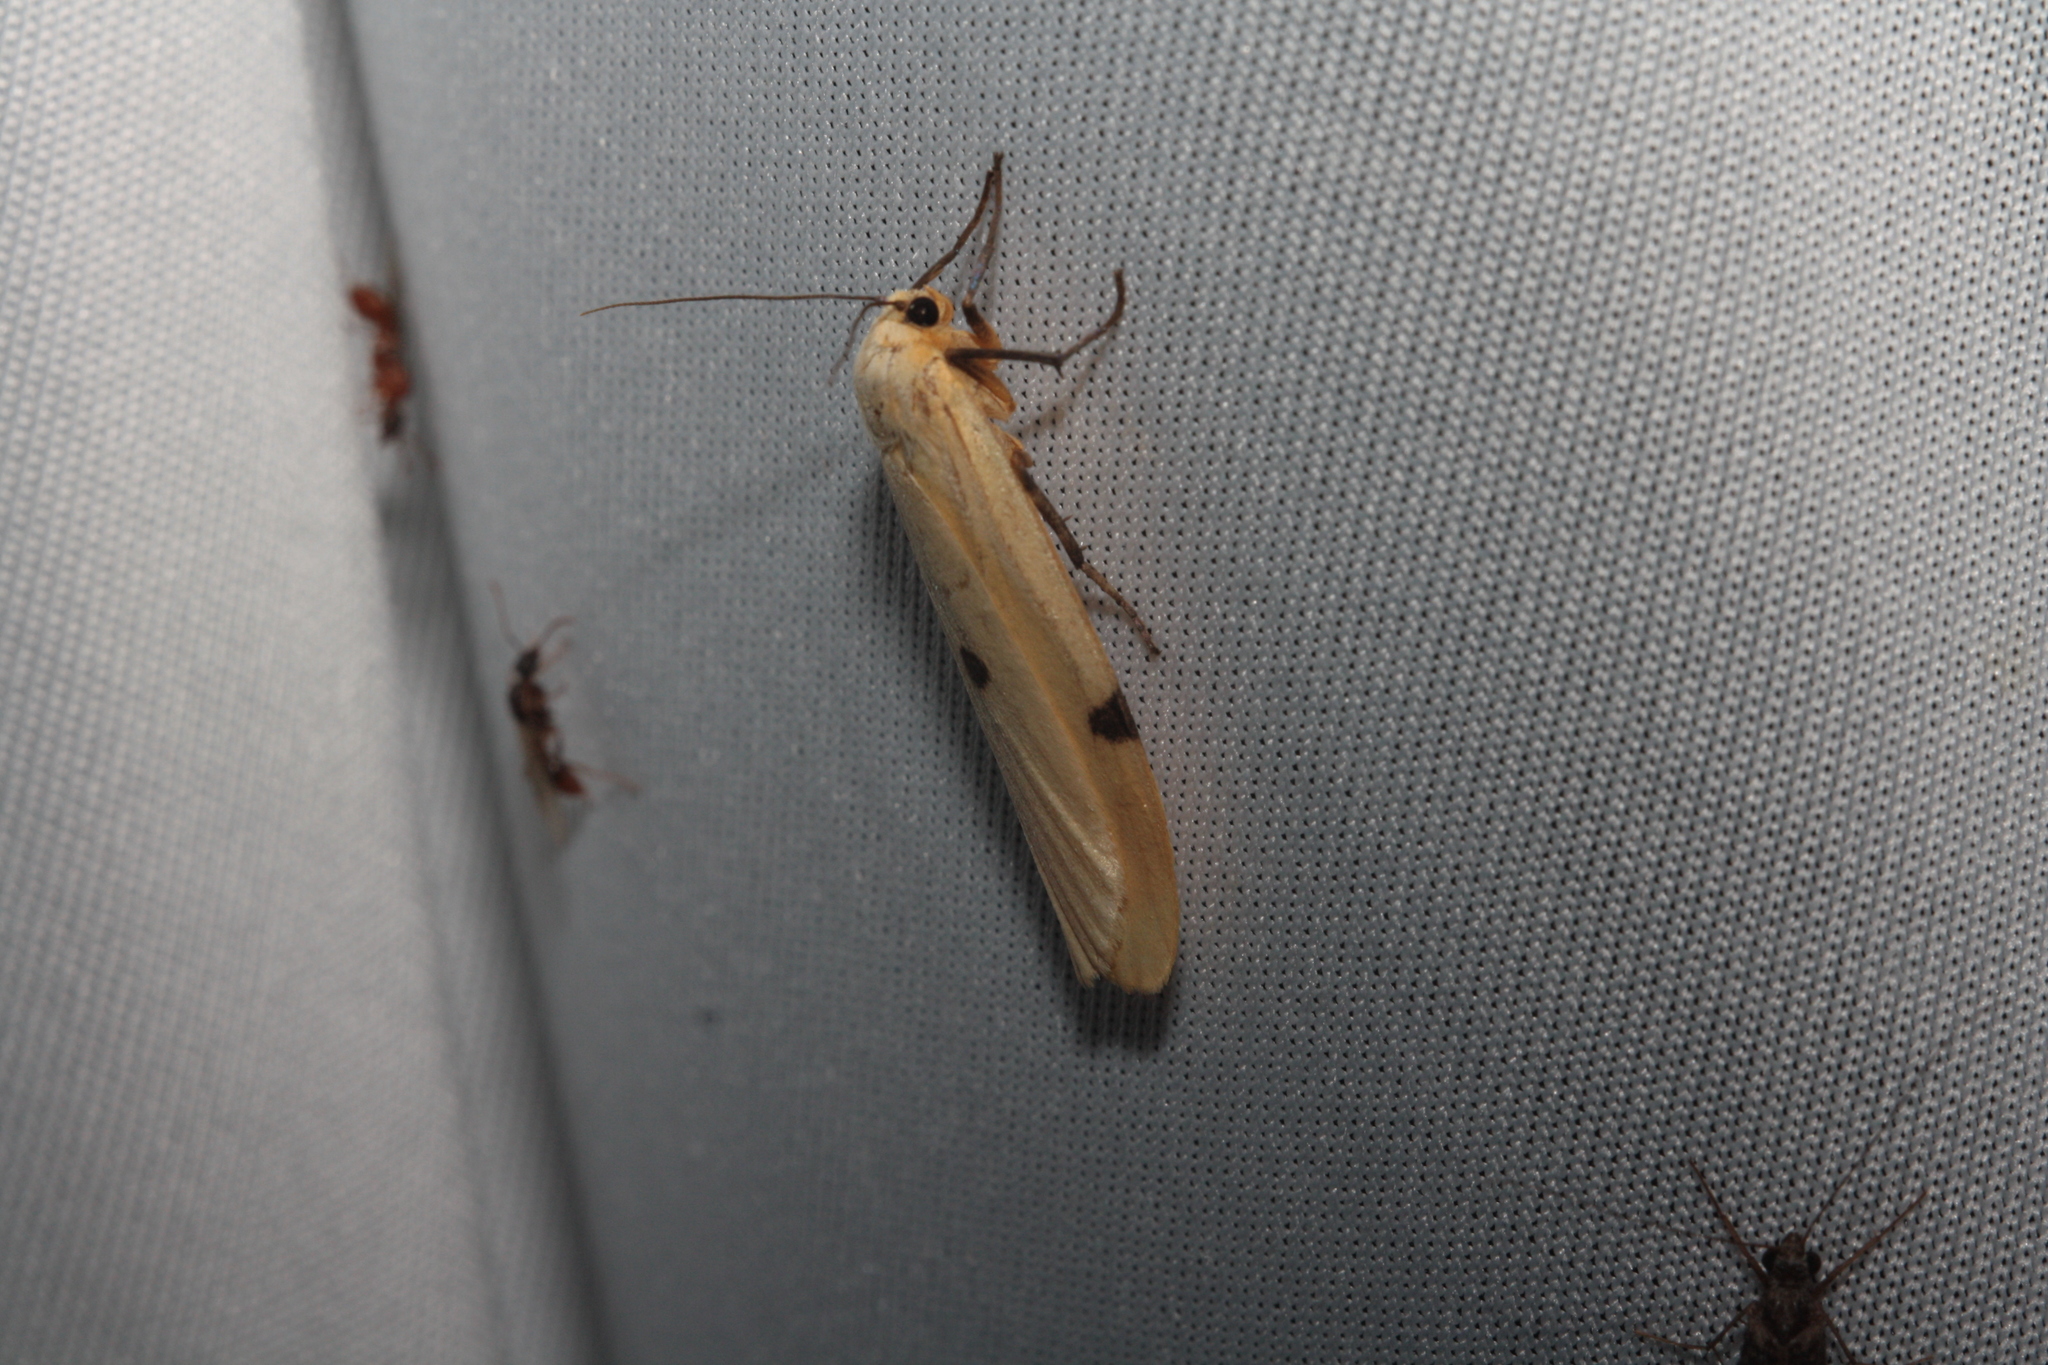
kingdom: Animalia
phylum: Arthropoda
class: Insecta
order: Lepidoptera
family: Erebidae
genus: Lithosia
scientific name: Lithosia quadra
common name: Four-spotted footman
